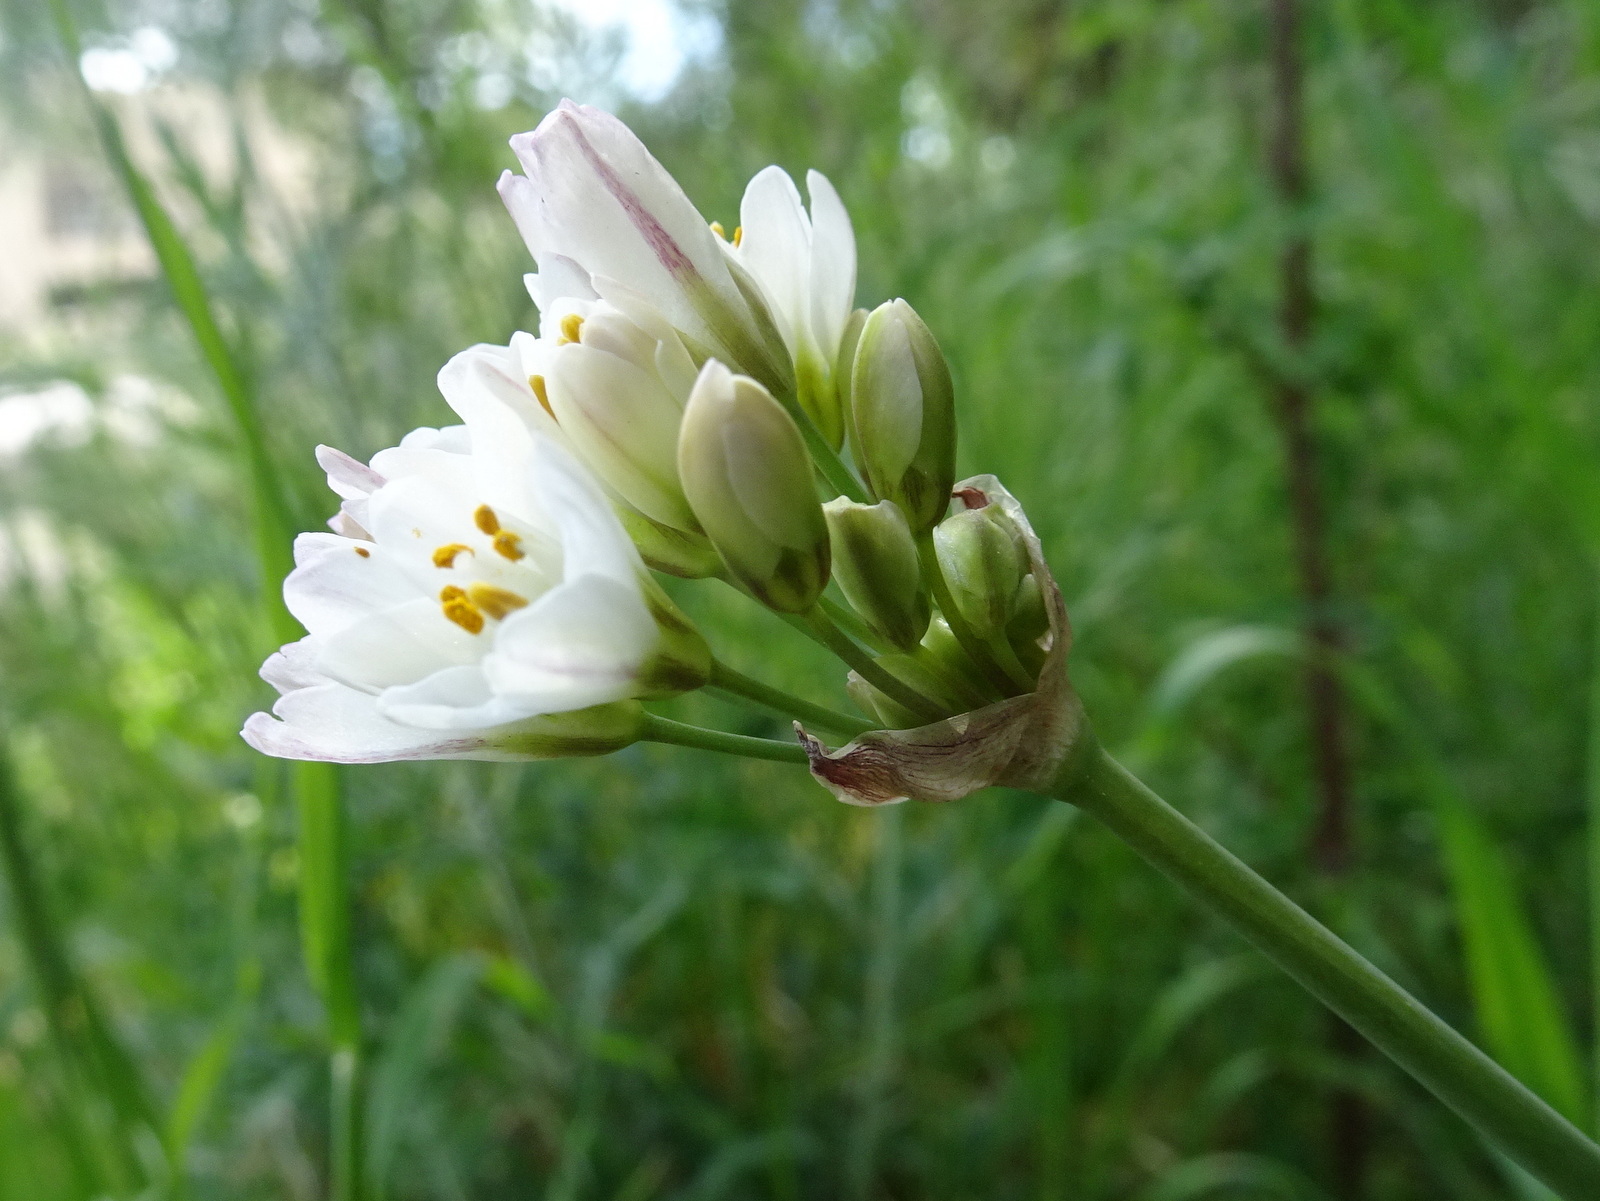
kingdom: Plantae
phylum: Tracheophyta
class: Liliopsida
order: Asparagales
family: Amaryllidaceae
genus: Nothoscordum
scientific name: Nothoscordum borbonicum
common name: Honeybells
